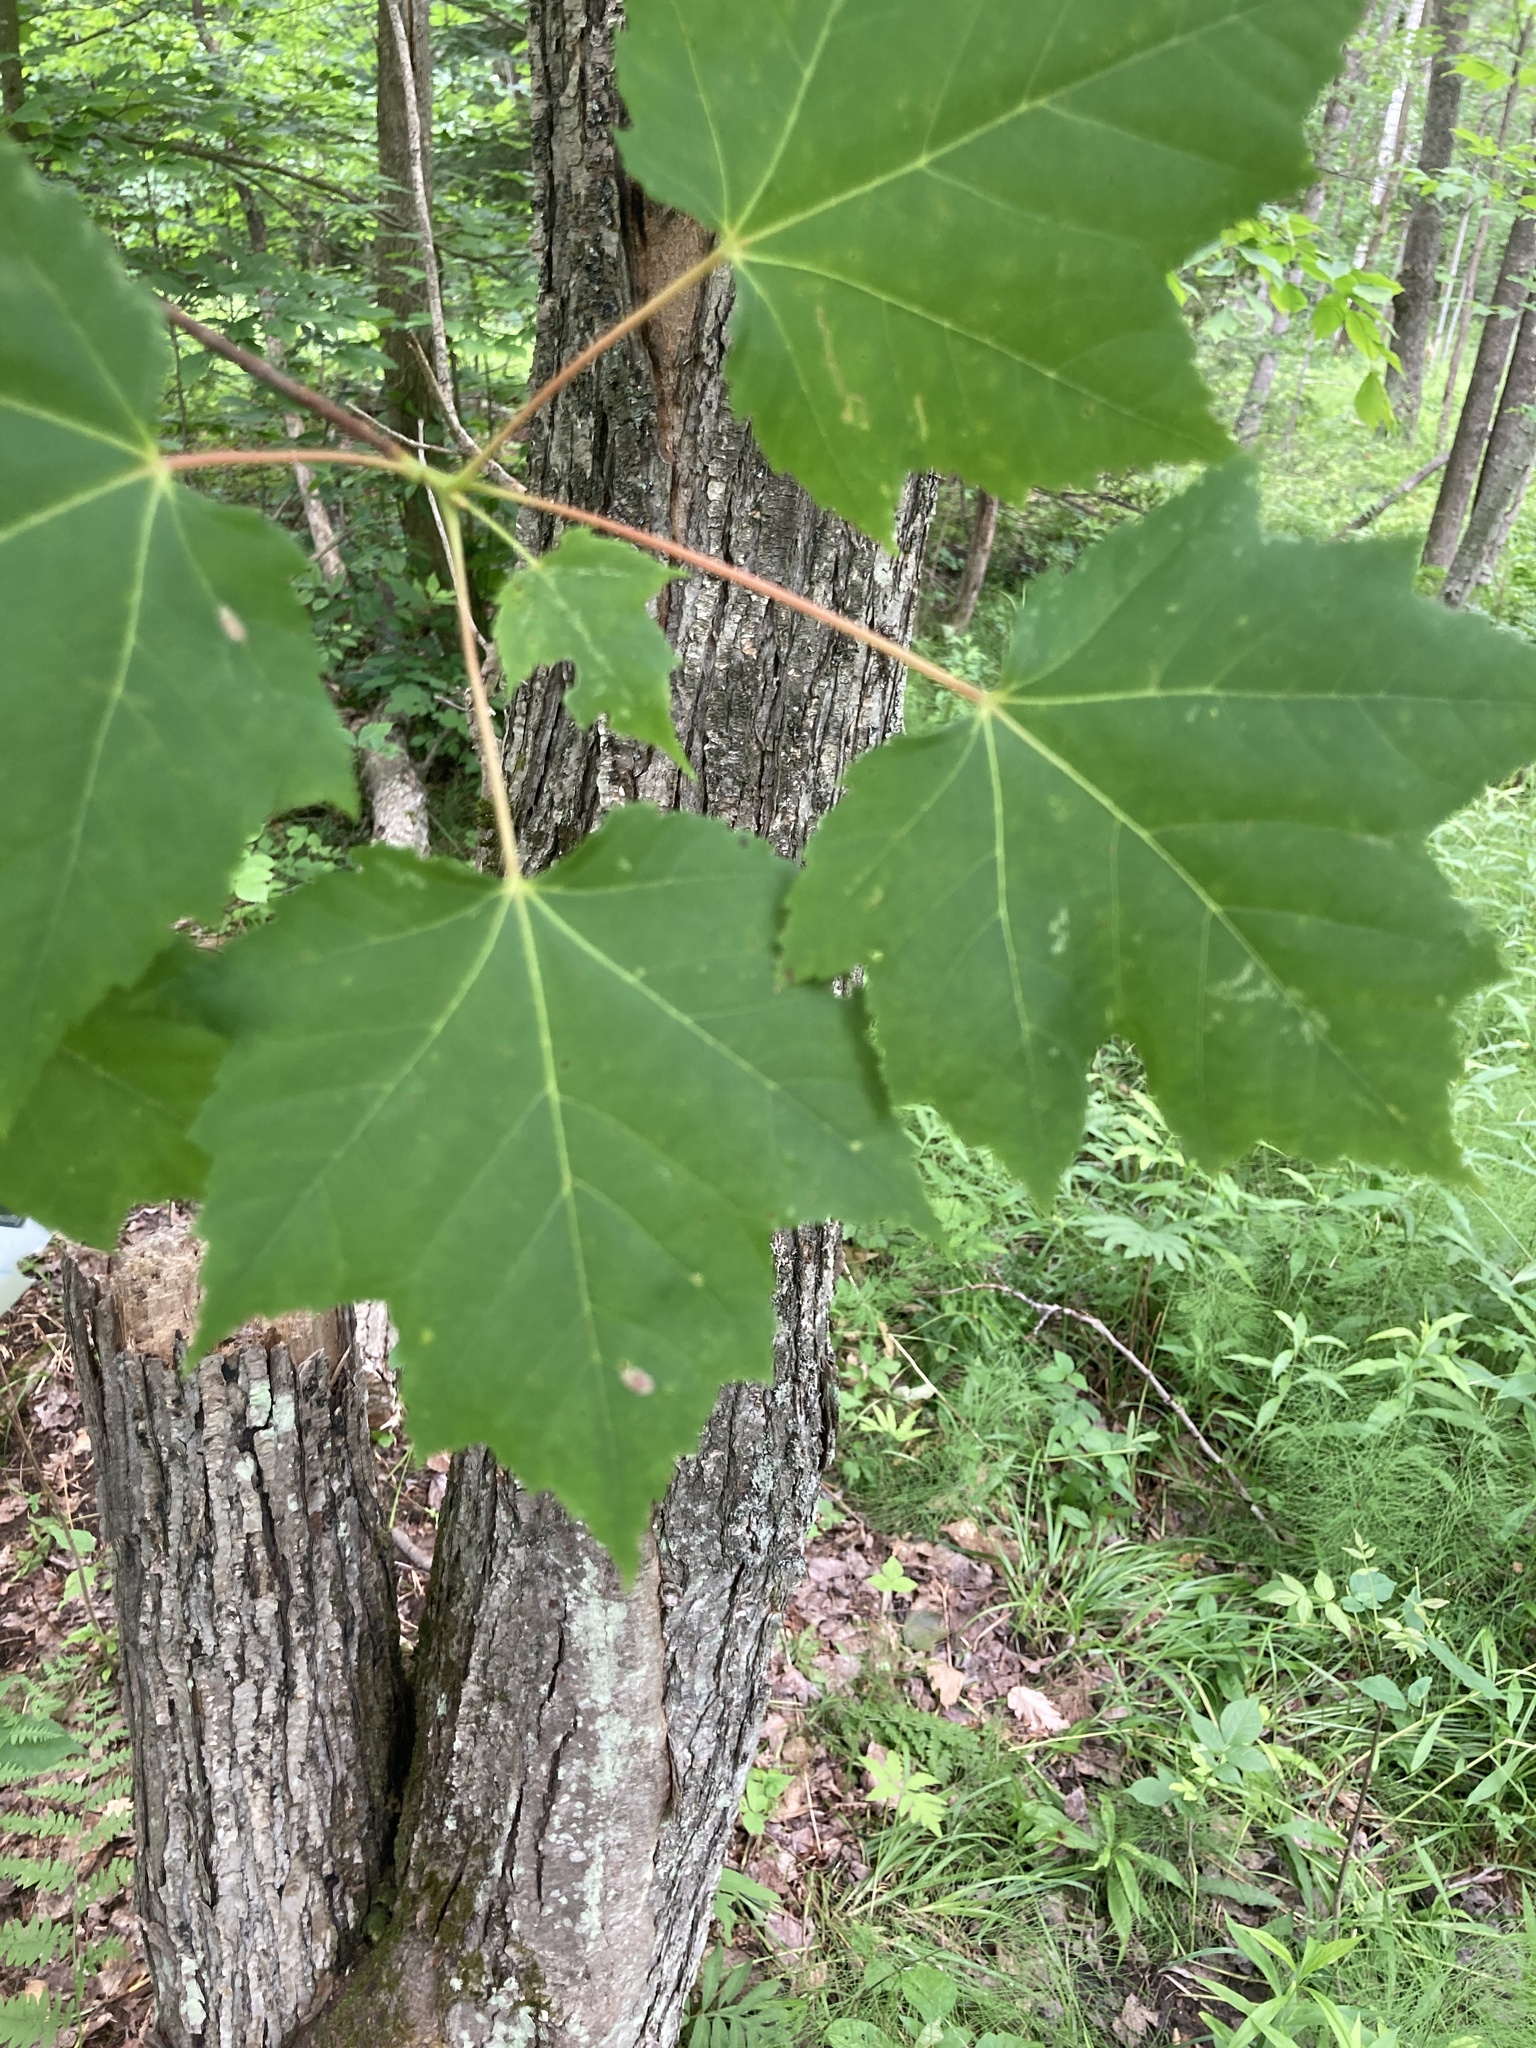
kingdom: Plantae
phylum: Tracheophyta
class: Magnoliopsida
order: Sapindales
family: Sapindaceae
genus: Acer
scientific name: Acer rubrum
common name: Red maple
